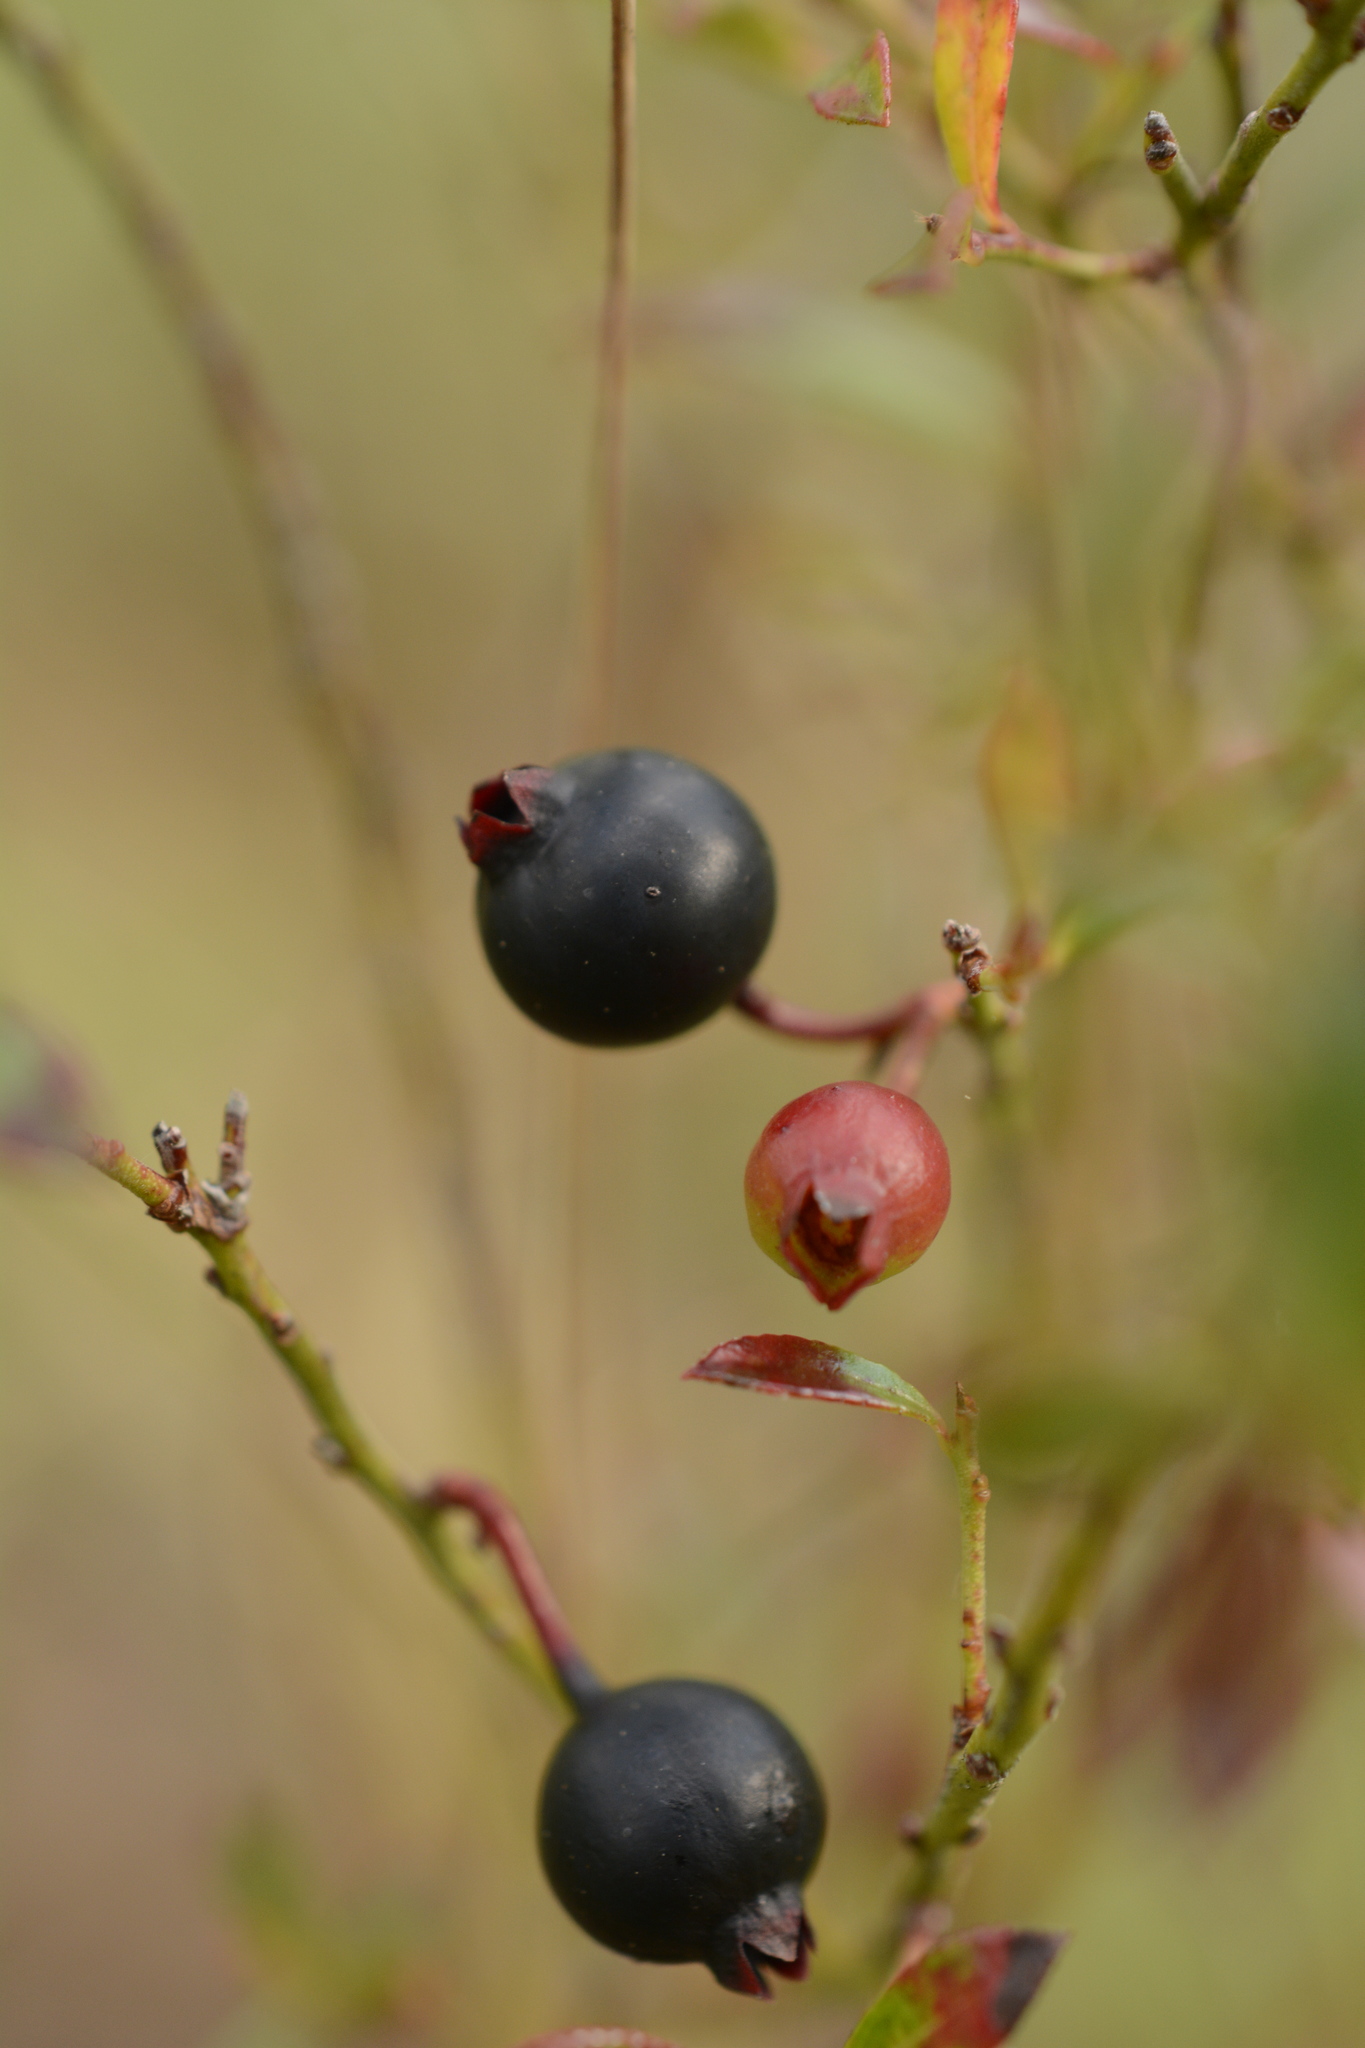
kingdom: Plantae
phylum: Tracheophyta
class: Magnoliopsida
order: Ericales
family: Ericaceae
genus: Vaccinium
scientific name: Vaccinium myrsinites
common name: Evergreen blueberry
